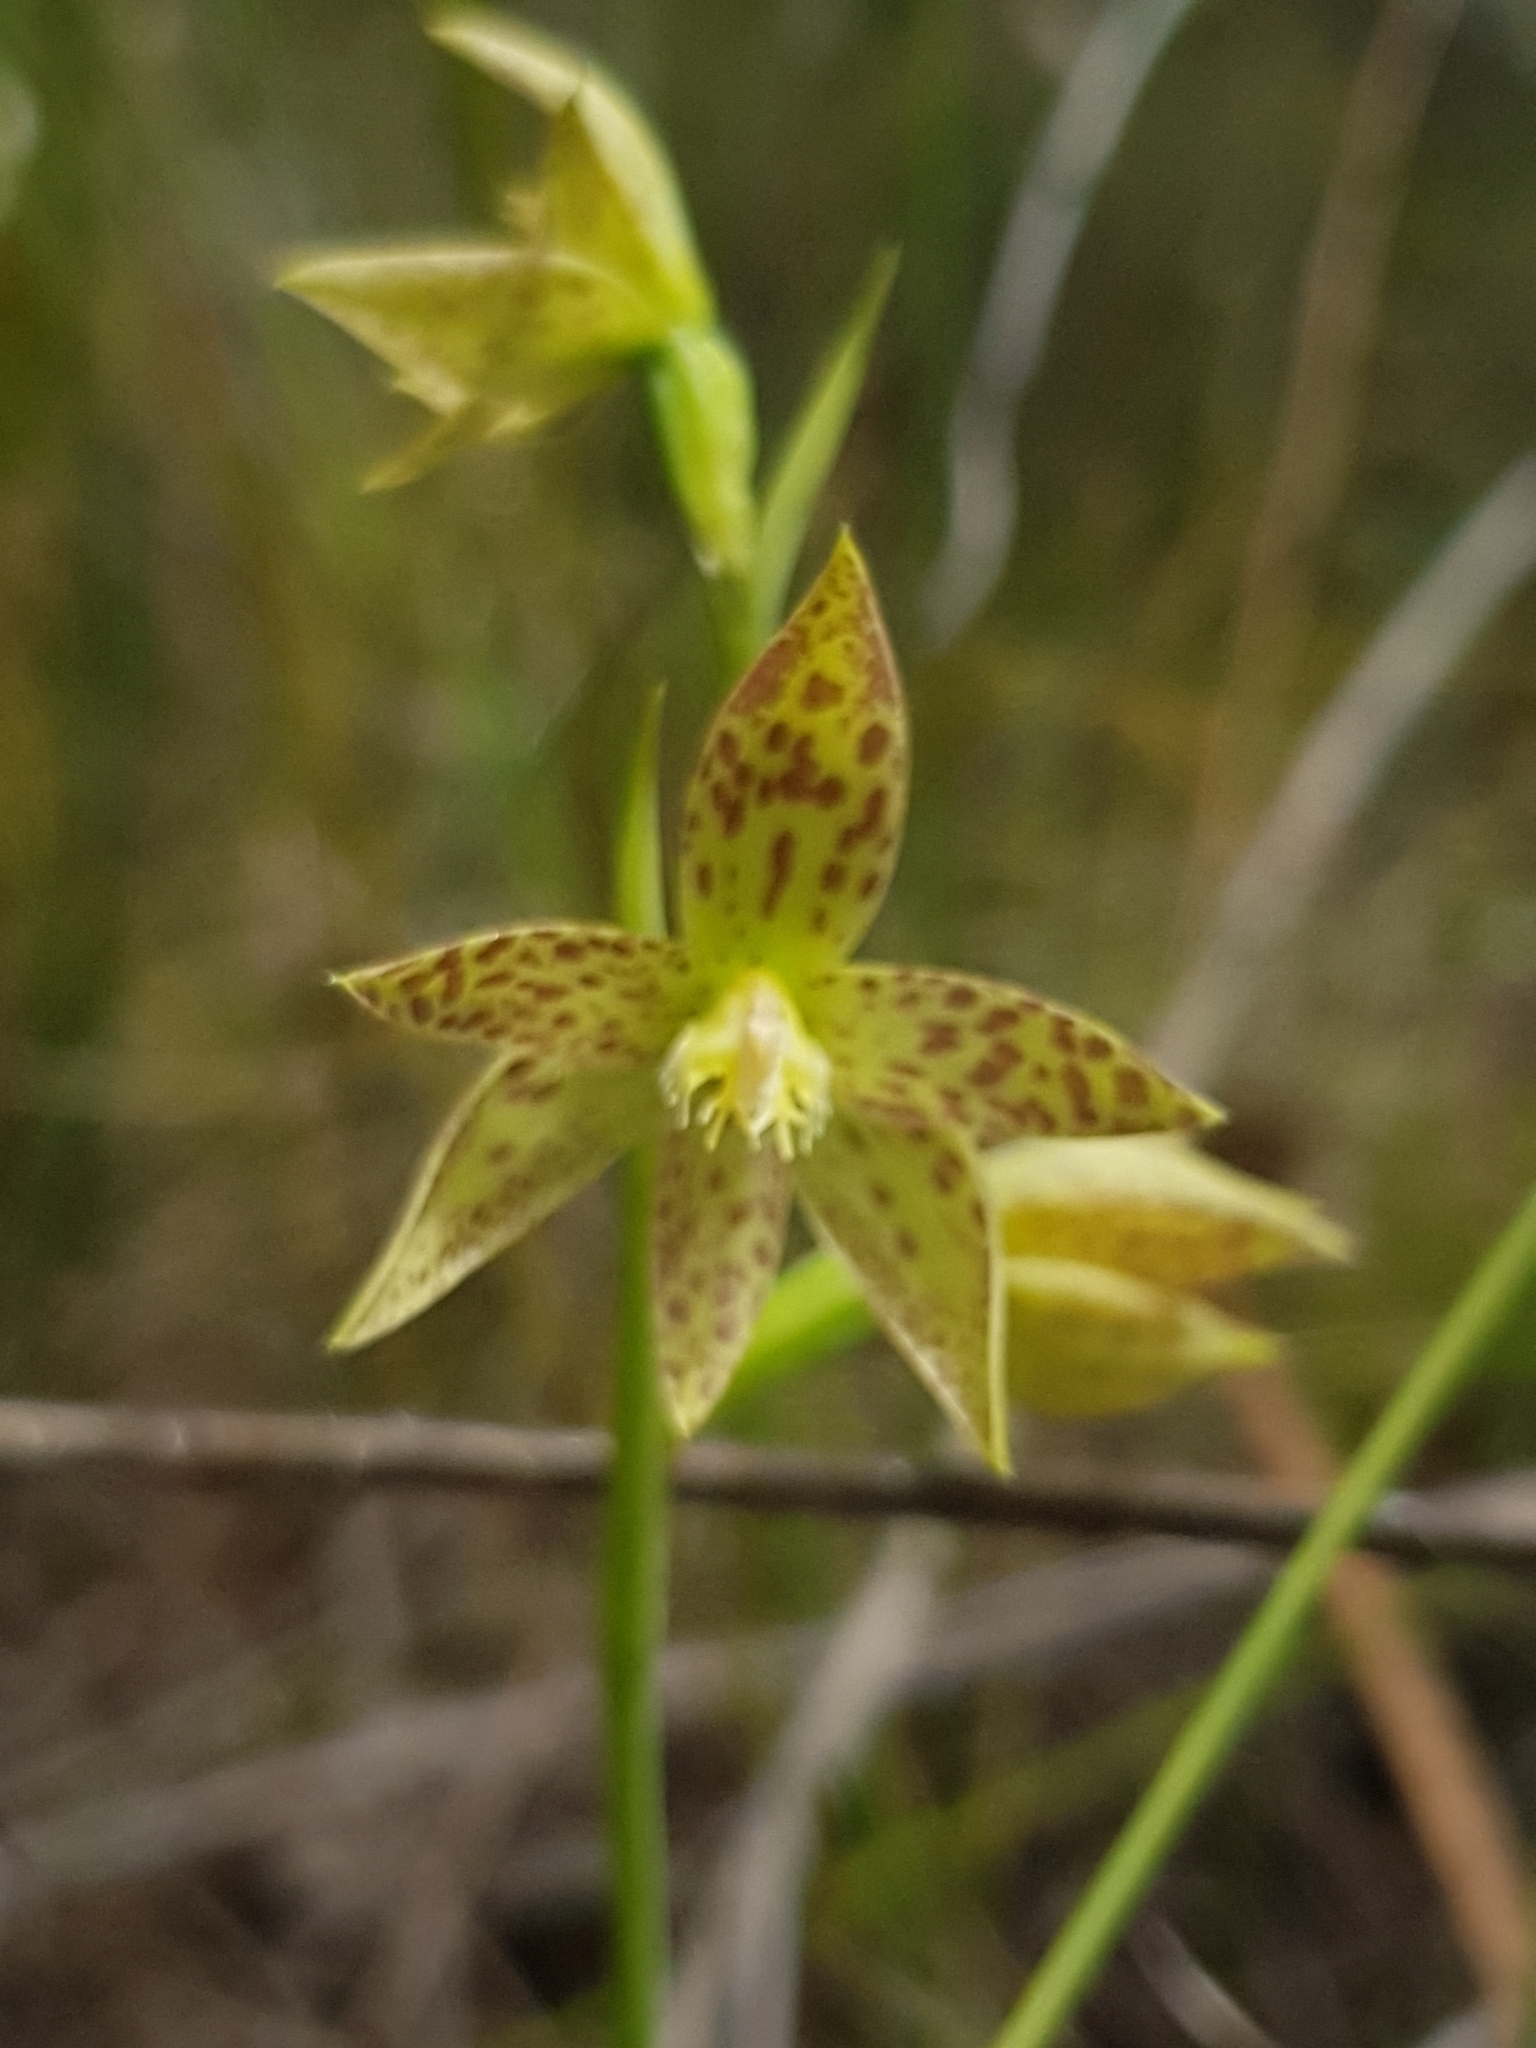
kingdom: Plantae
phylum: Tracheophyta
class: Liliopsida
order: Asparagales
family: Orchidaceae
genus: Thelymitra
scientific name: Thelymitra benthamiana
